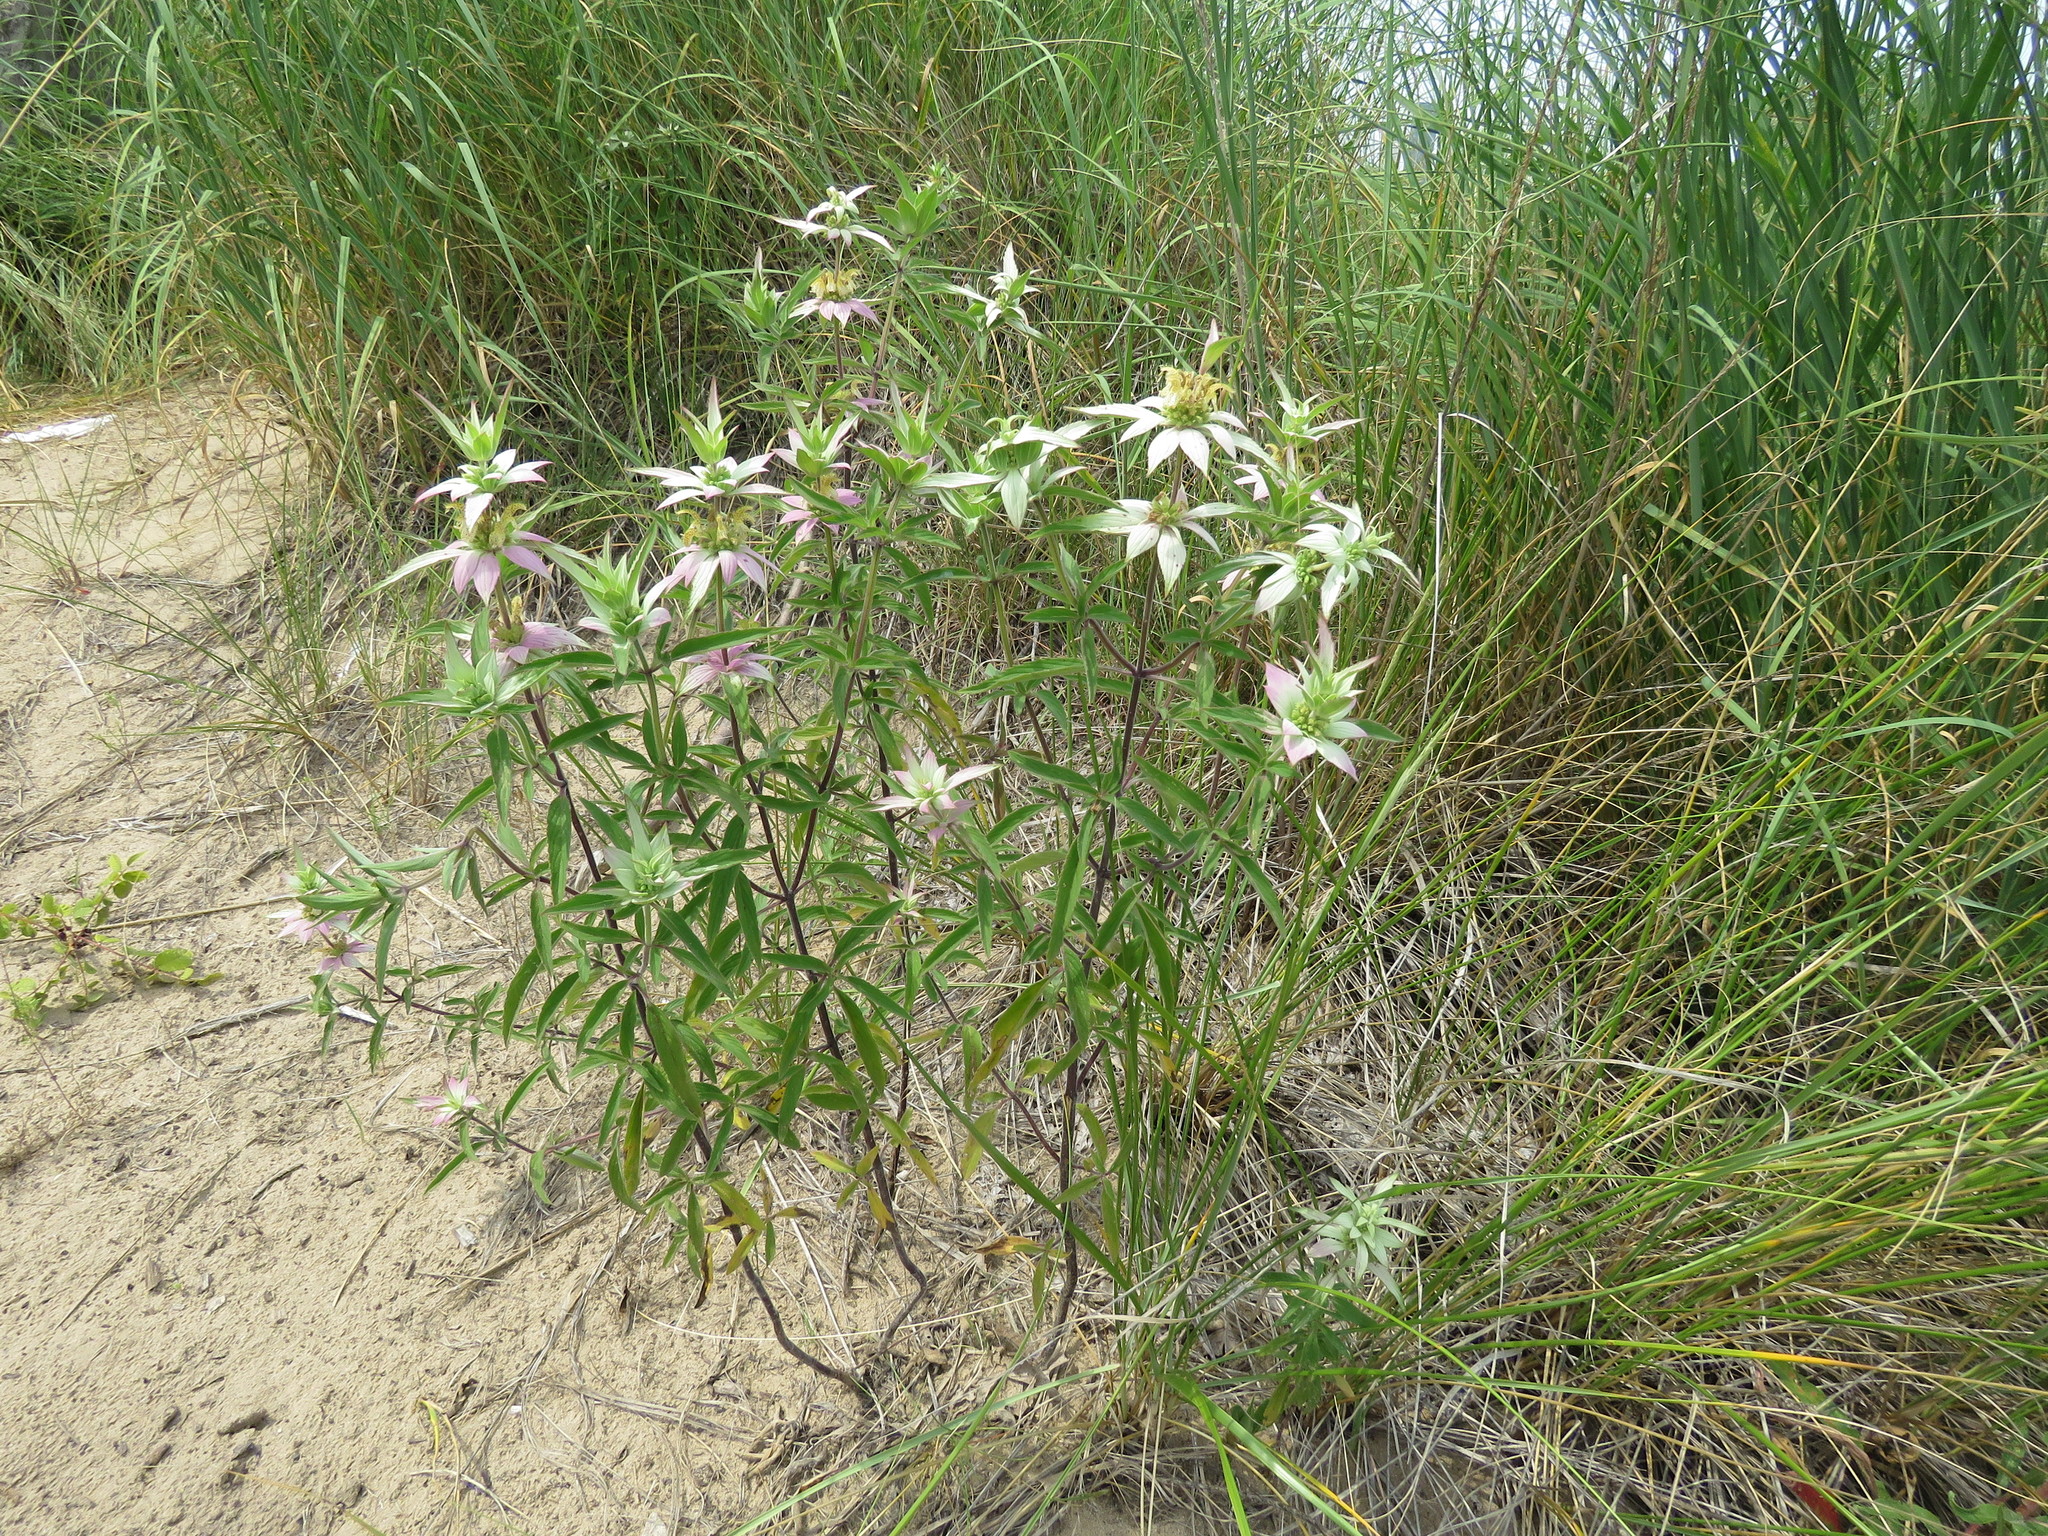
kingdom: Plantae
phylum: Tracheophyta
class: Magnoliopsida
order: Lamiales
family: Lamiaceae
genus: Monarda
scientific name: Monarda punctata
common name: Dotted monarda
